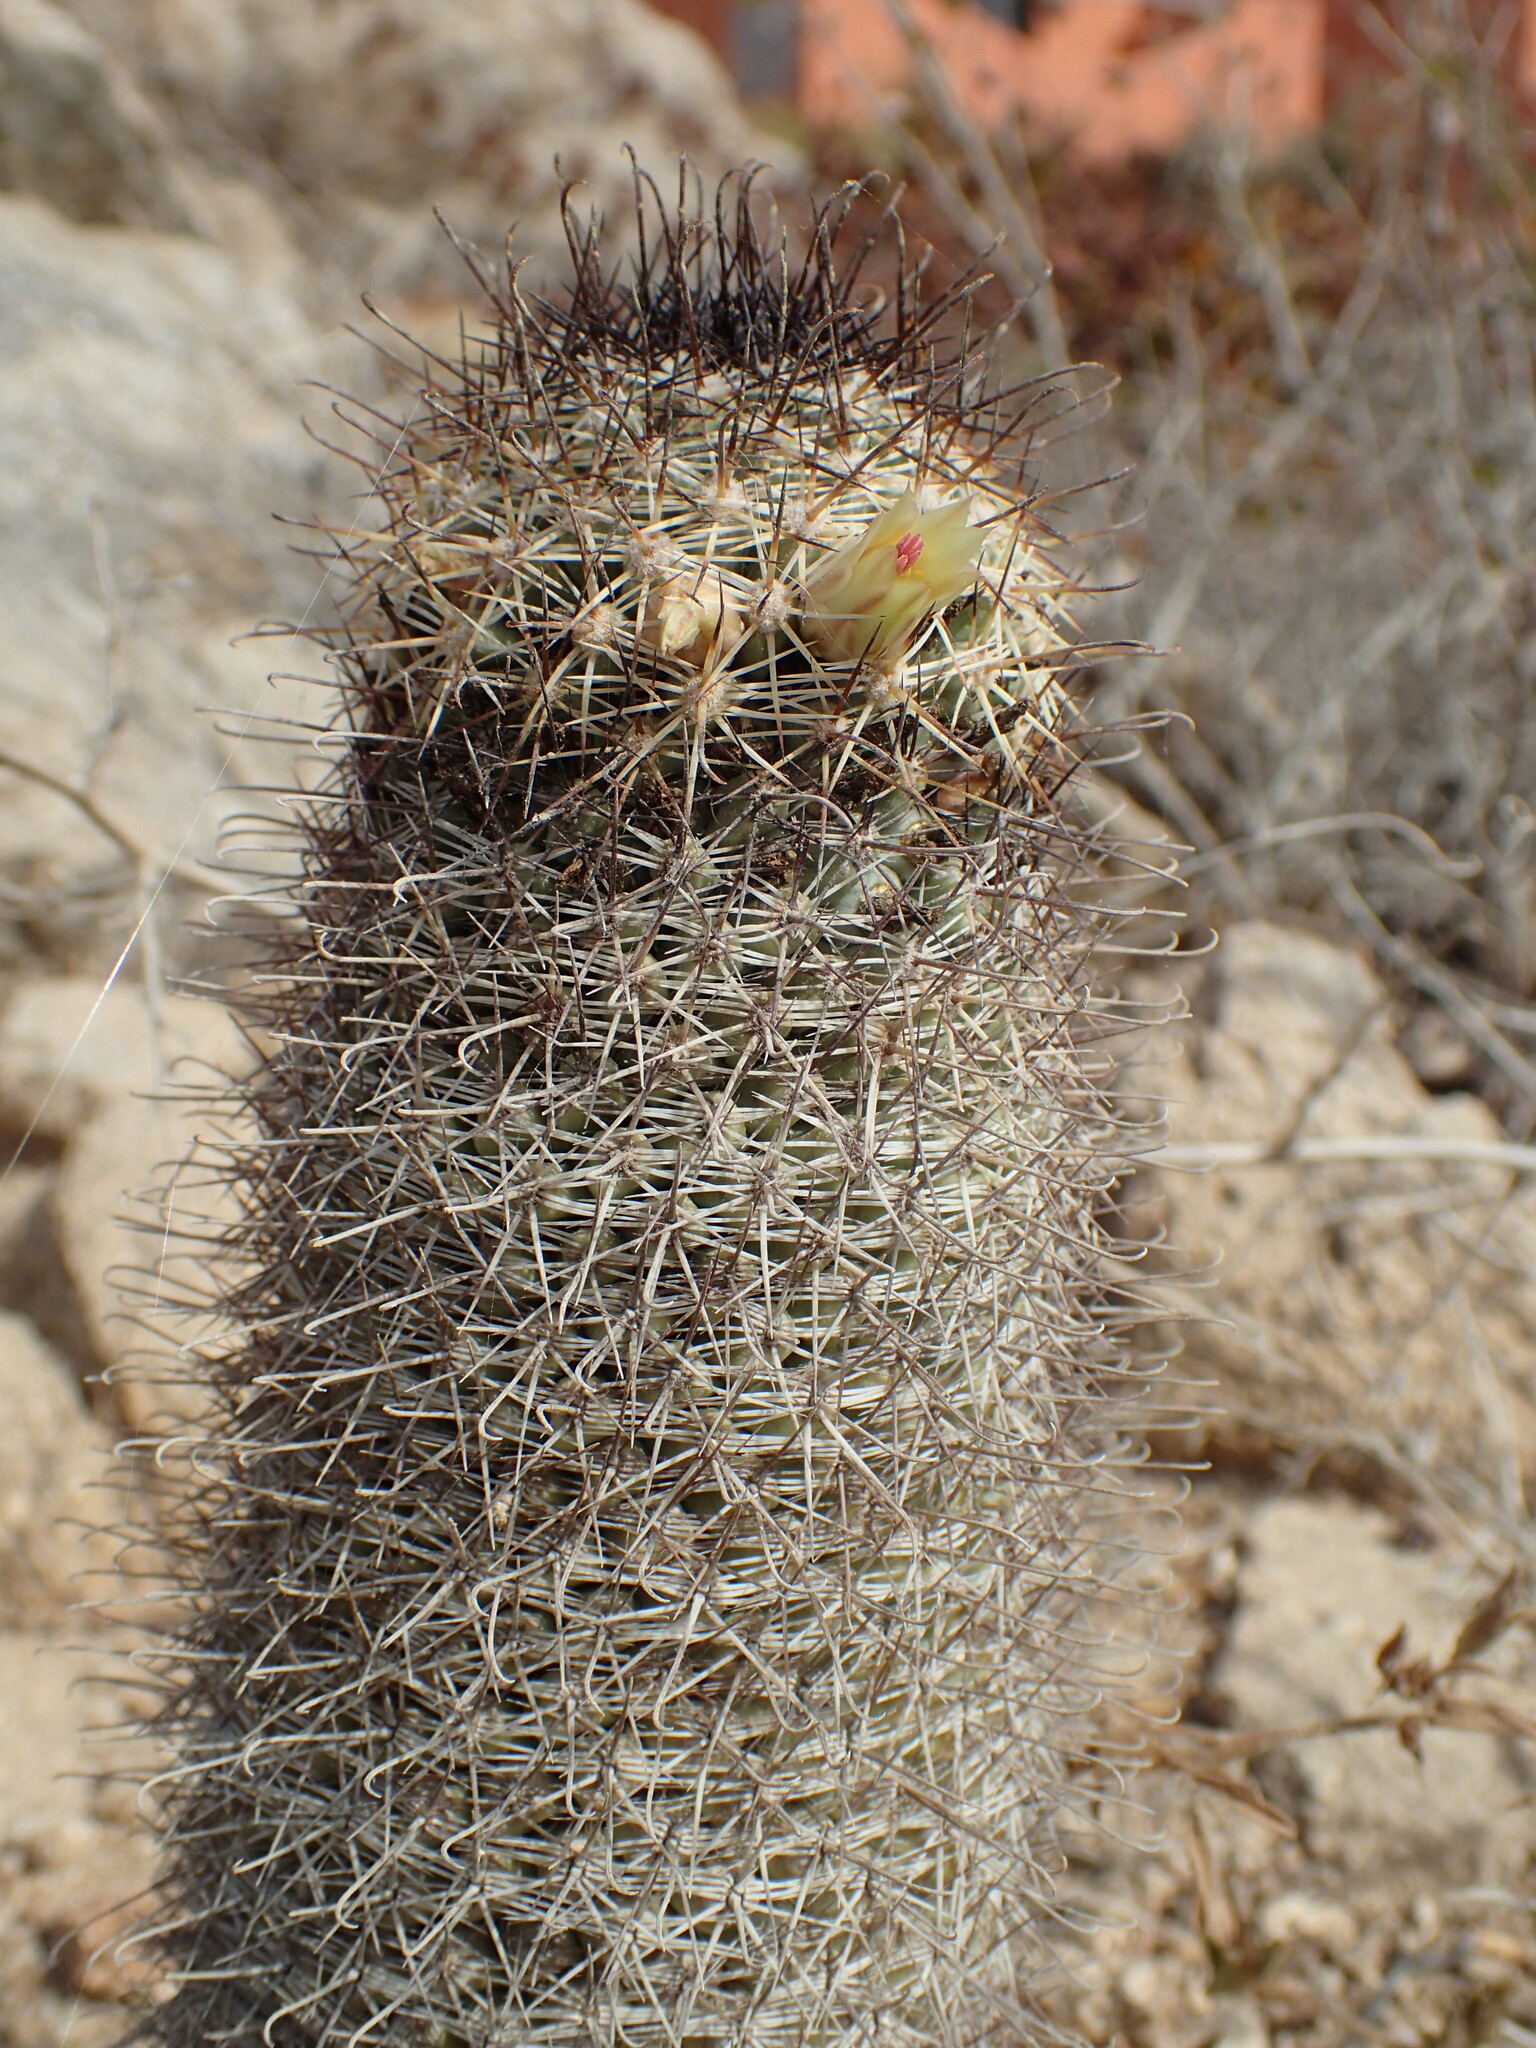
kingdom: Plantae
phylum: Tracheophyta
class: Magnoliopsida
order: Caryophyllales
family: Cactaceae
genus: Cochemiea
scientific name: Cochemiea armillata
